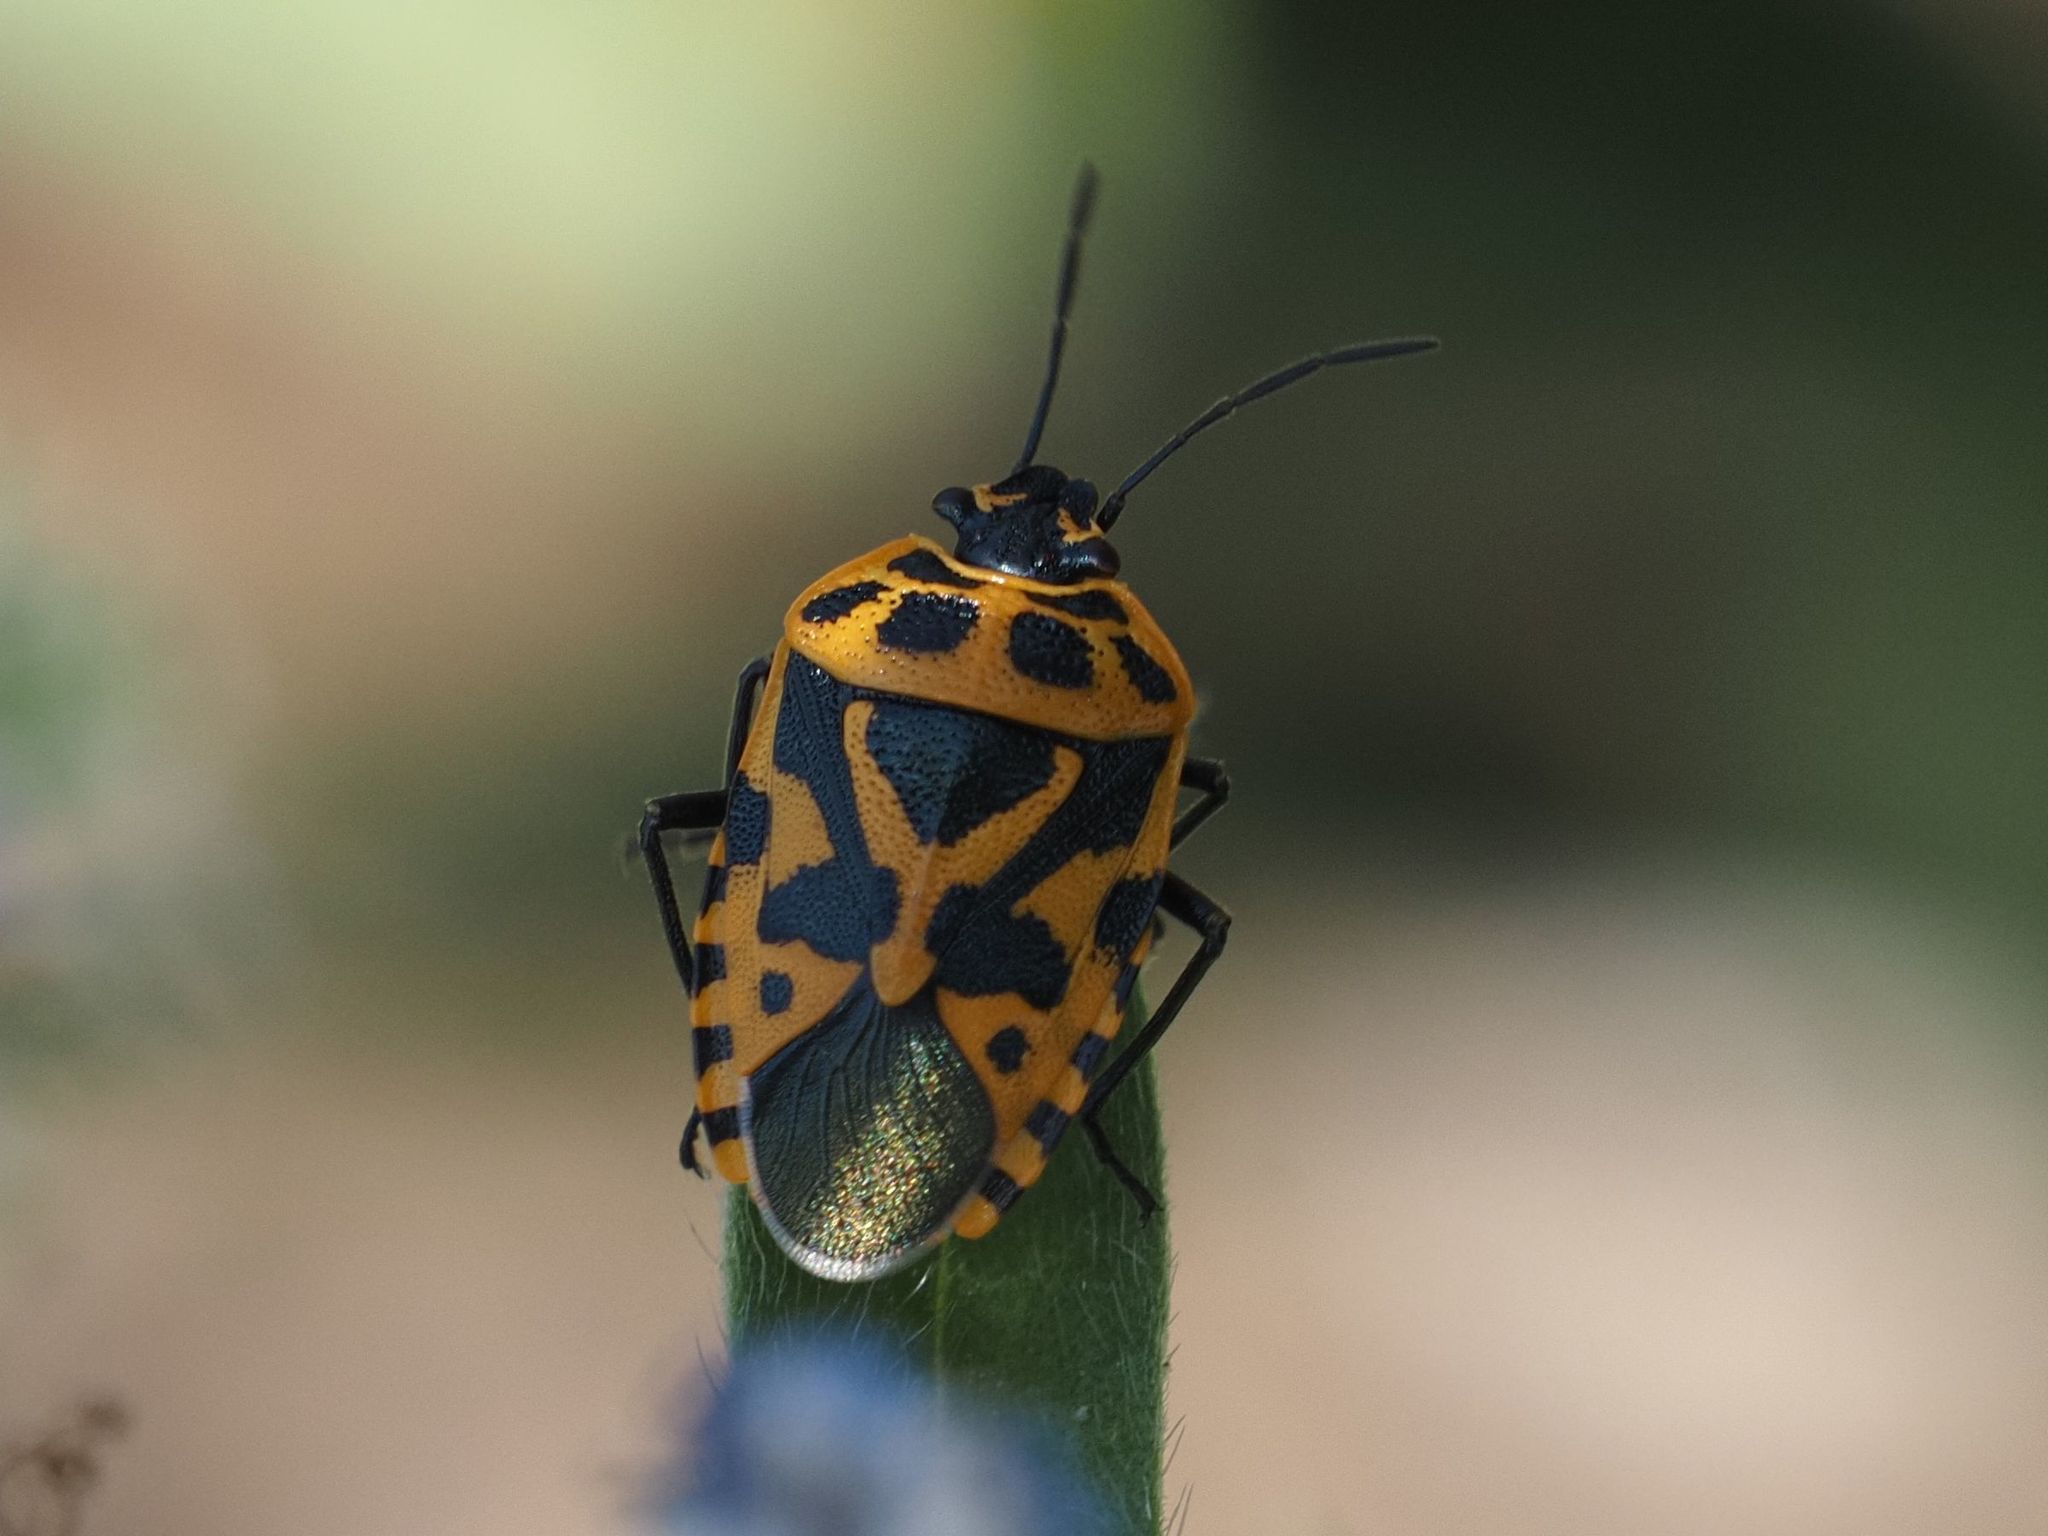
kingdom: Animalia
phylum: Arthropoda
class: Insecta
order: Hemiptera
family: Pentatomidae
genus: Eurydema
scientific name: Eurydema ventralis
